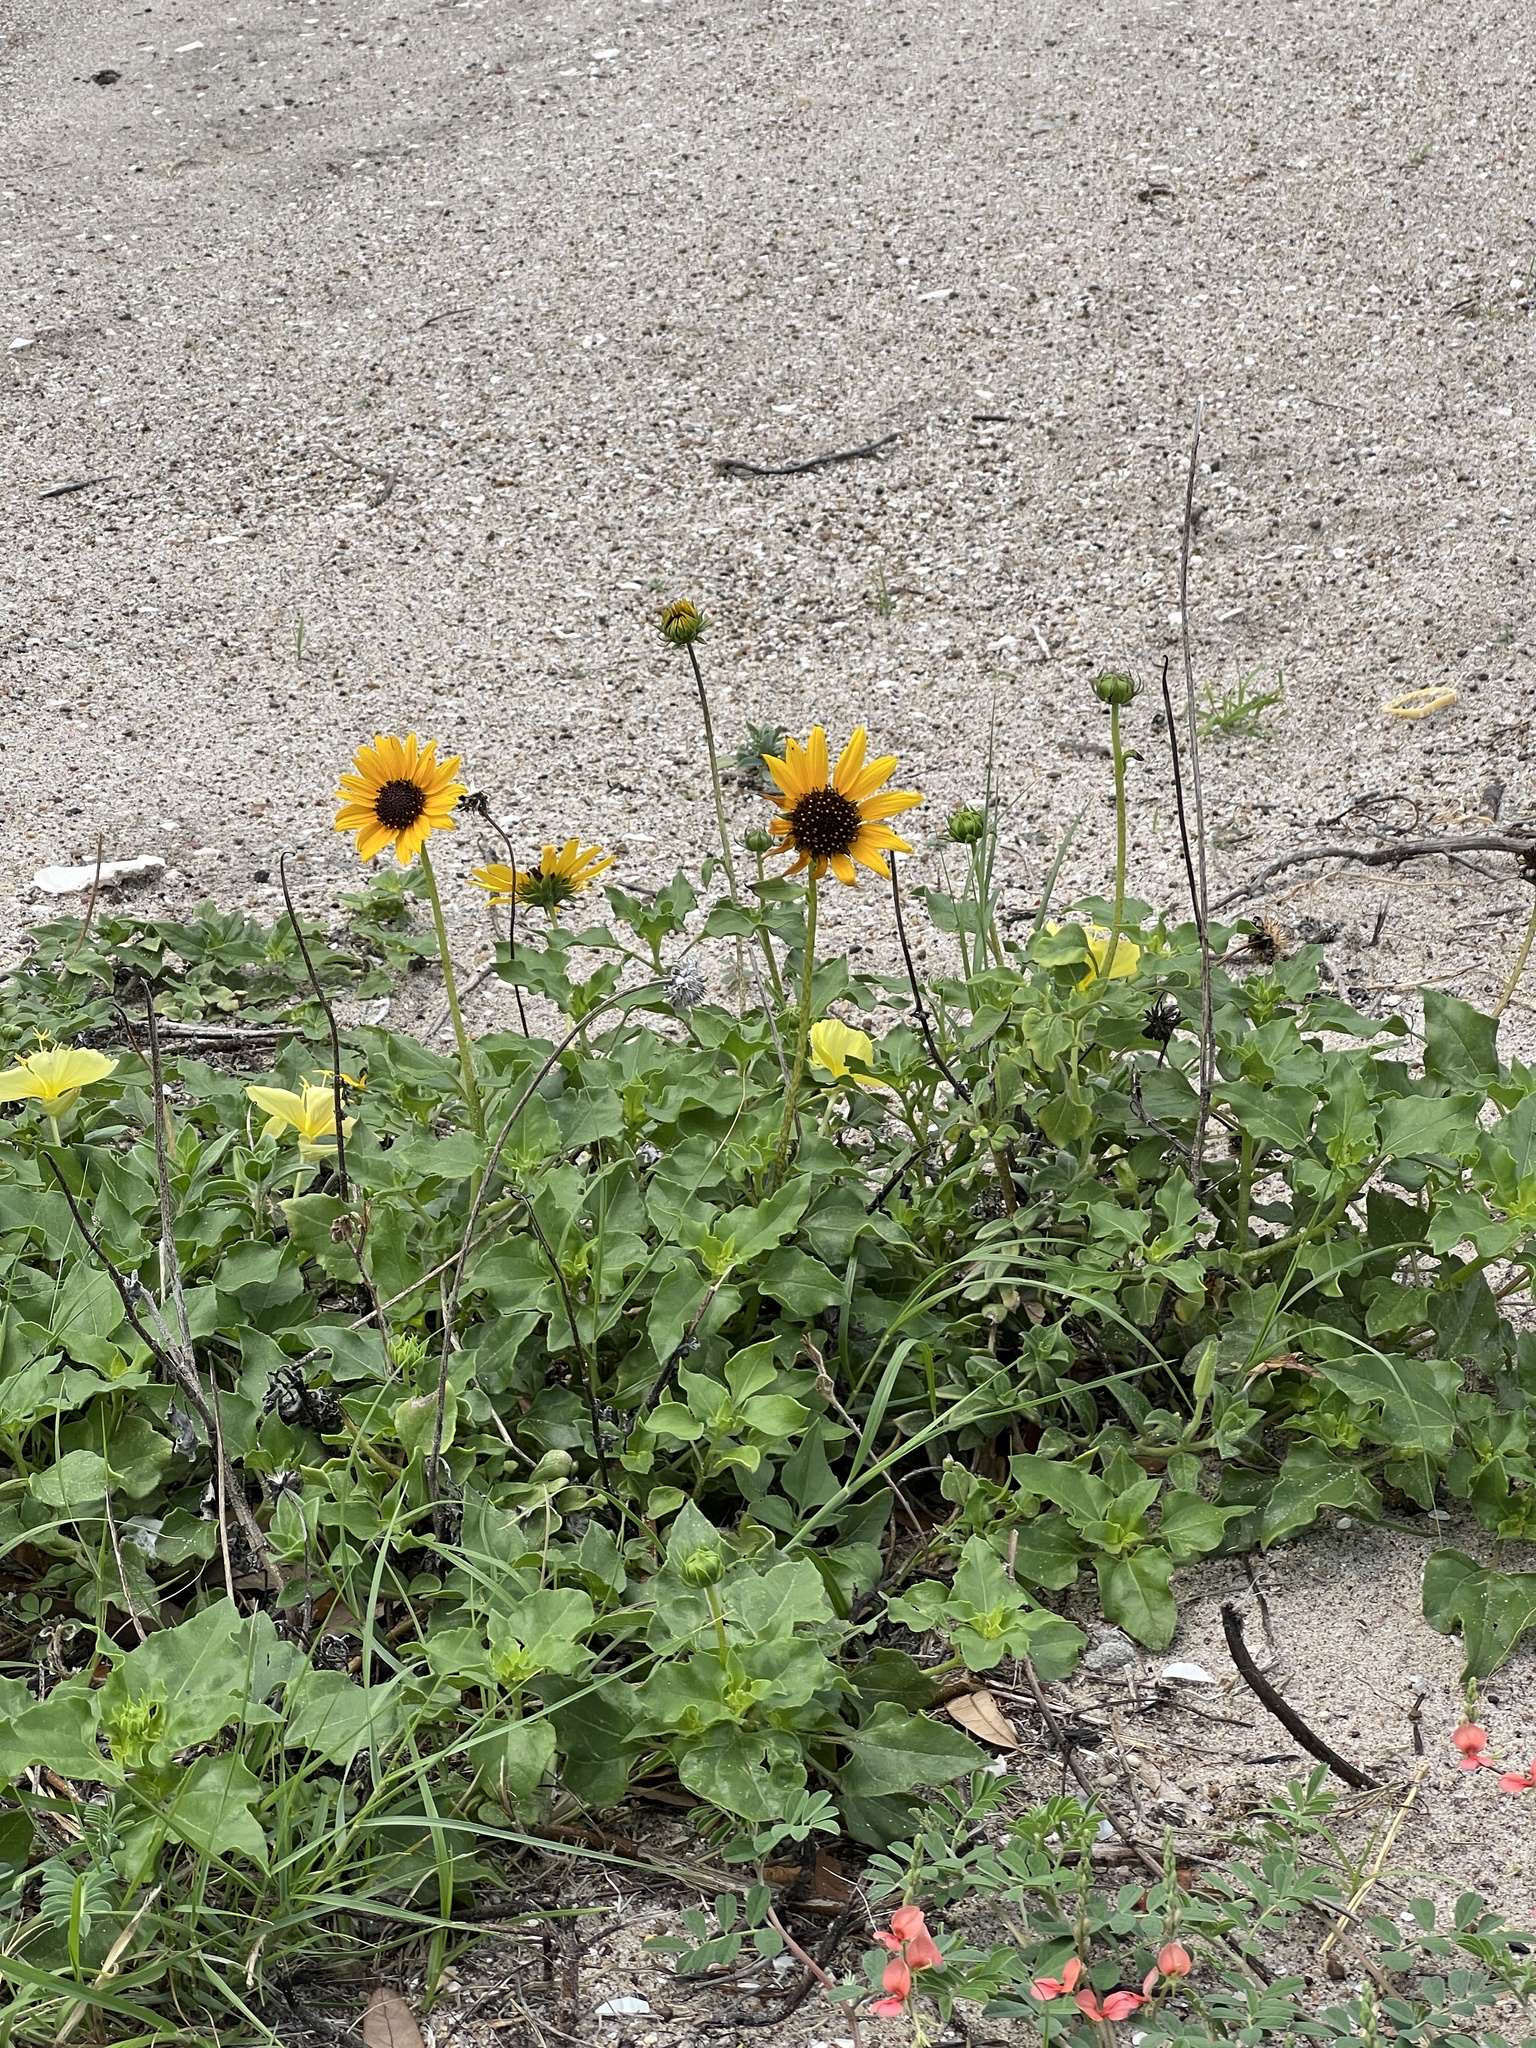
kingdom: Plantae
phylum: Tracheophyta
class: Magnoliopsida
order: Asterales
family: Asteraceae
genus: Helianthus
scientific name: Helianthus praecox
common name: Texas sunflower
